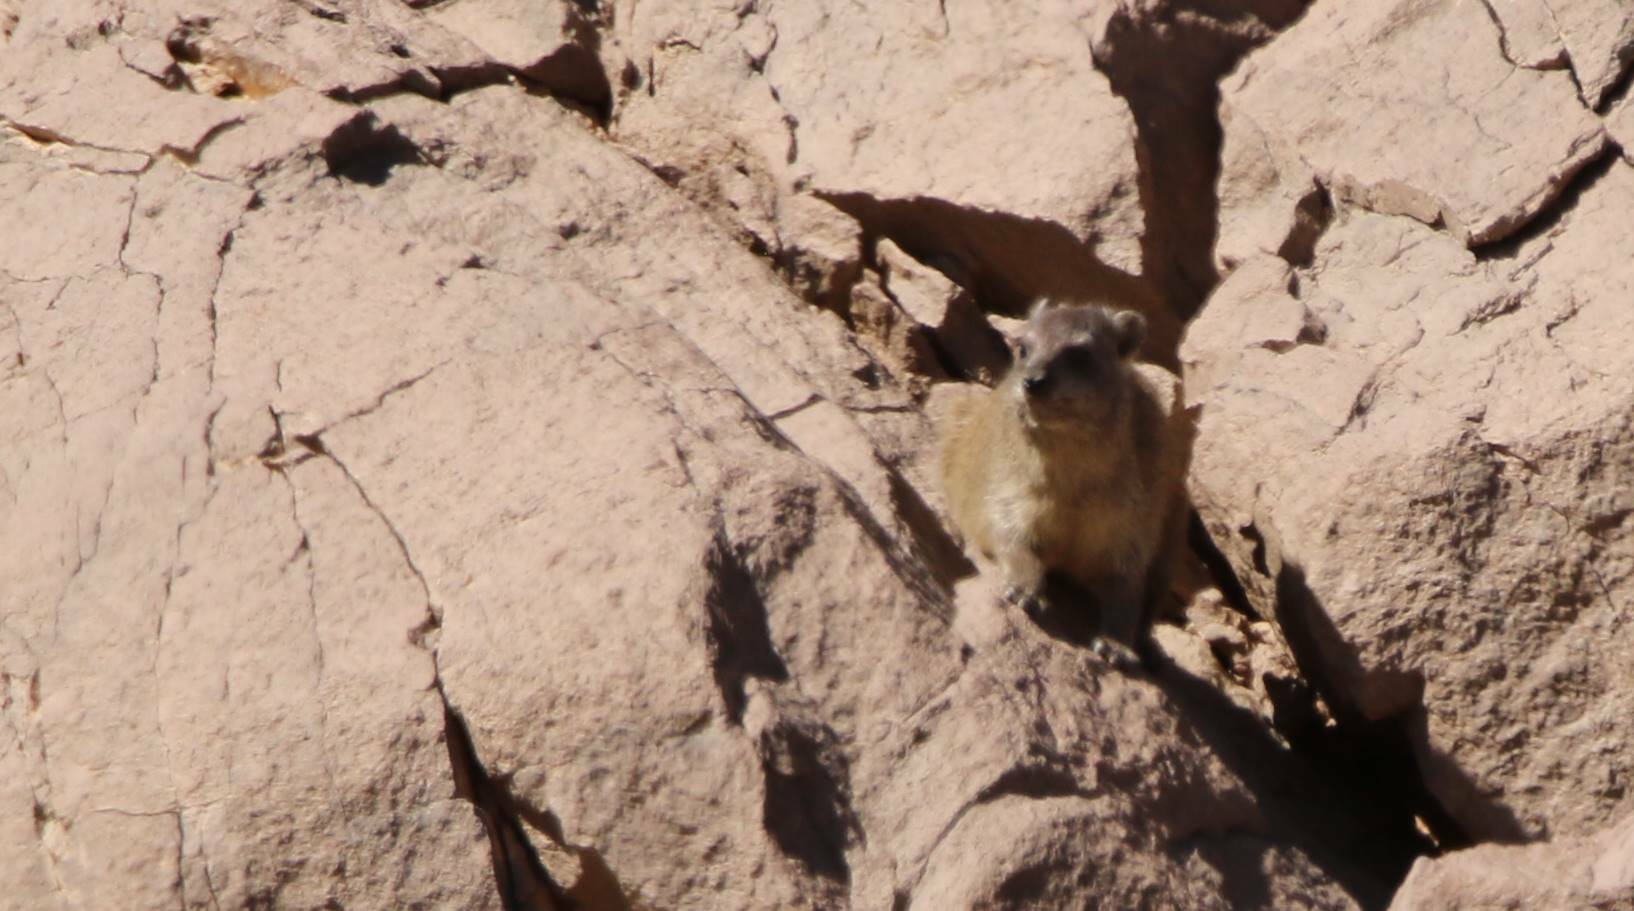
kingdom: Animalia
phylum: Chordata
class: Mammalia
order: Hyracoidea
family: Procaviidae
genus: Procavia
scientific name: Procavia capensis
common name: Rock hyrax
